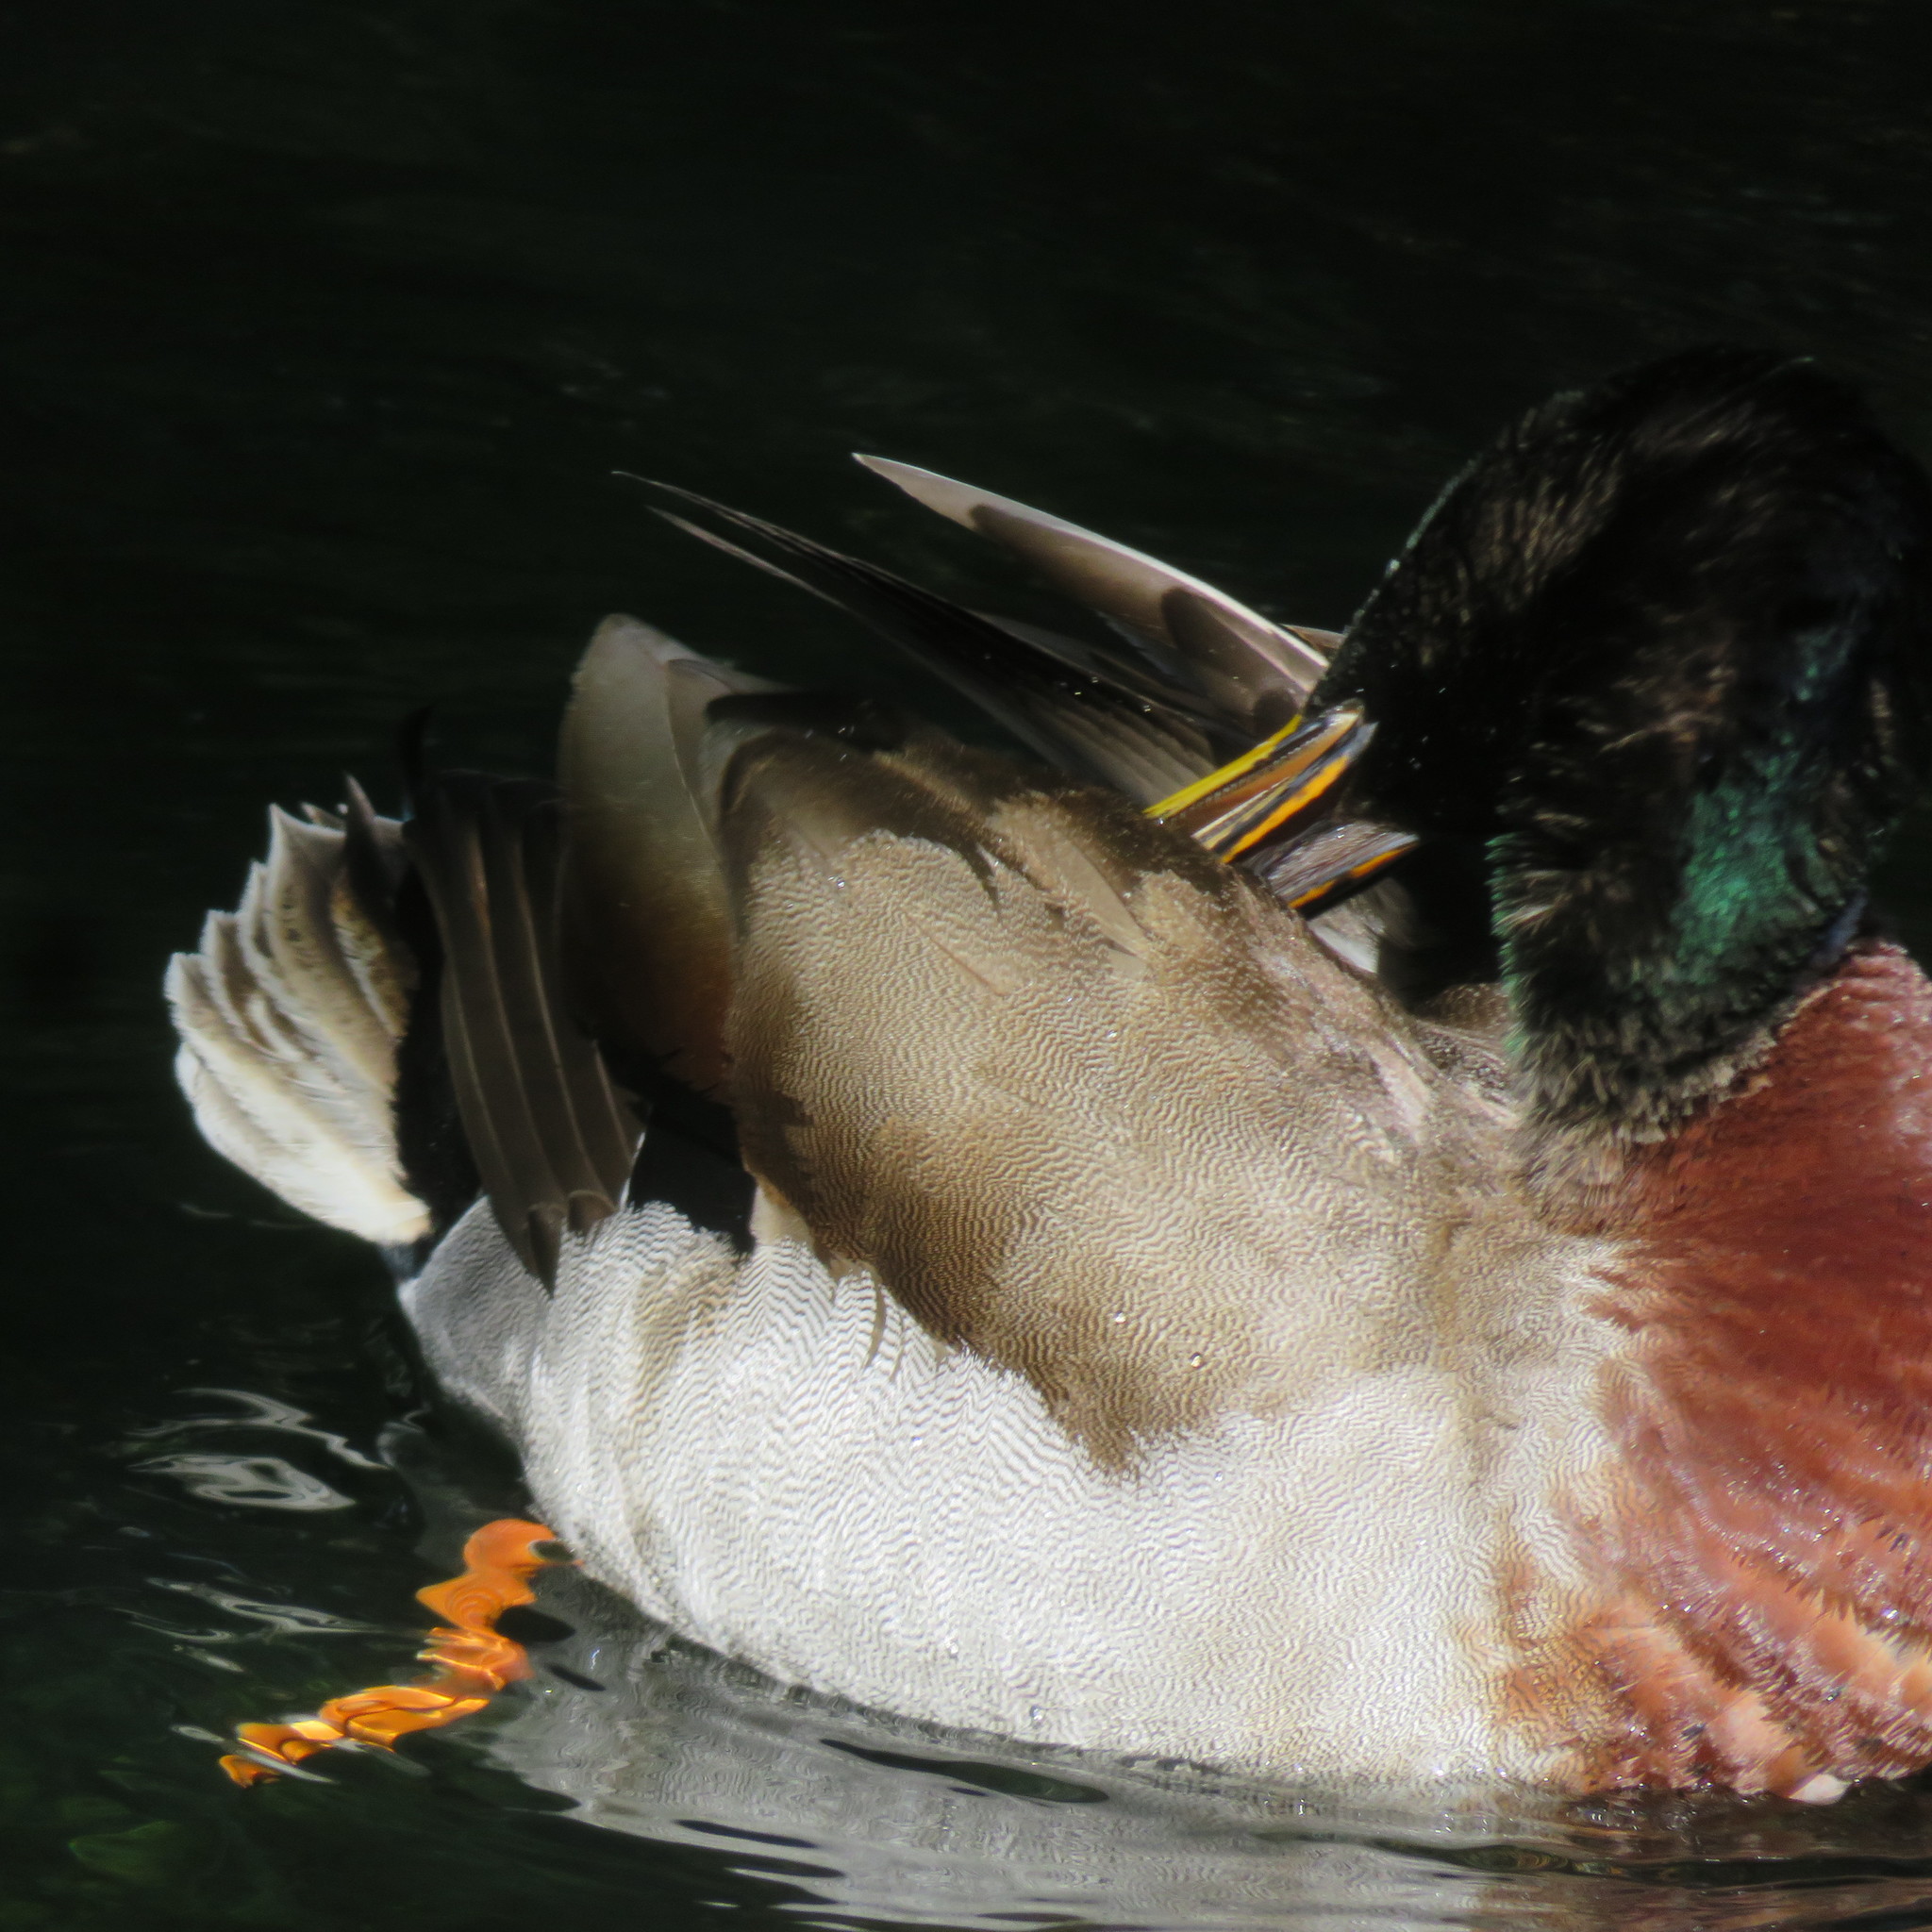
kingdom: Animalia
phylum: Chordata
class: Aves
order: Anseriformes
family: Anatidae
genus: Anas
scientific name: Anas platyrhynchos
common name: Mallard
